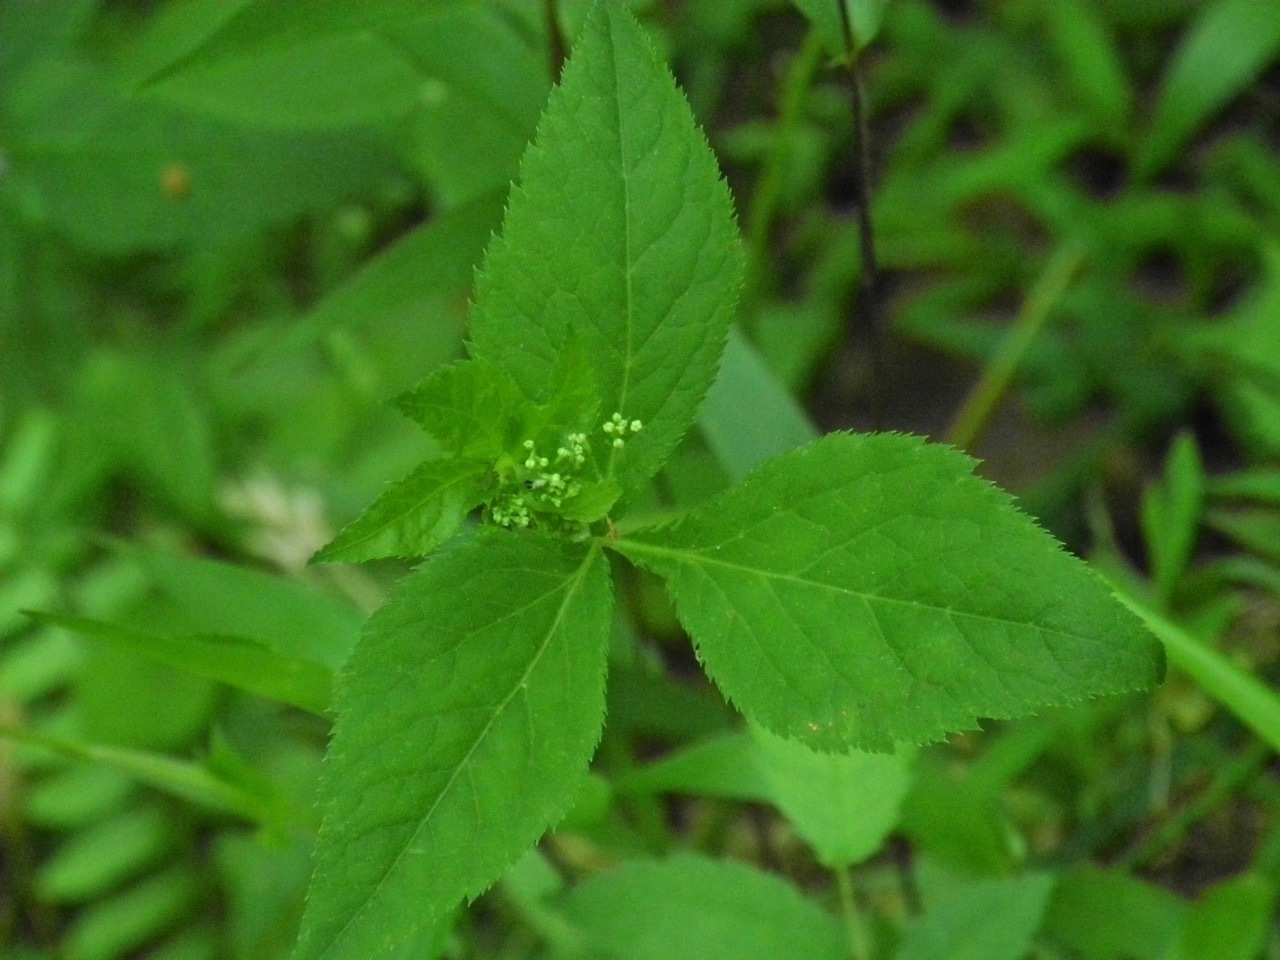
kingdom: Plantae
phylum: Tracheophyta
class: Magnoliopsida
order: Apiales
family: Apiaceae
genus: Cryptotaenia
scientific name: Cryptotaenia canadensis
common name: Honewort
